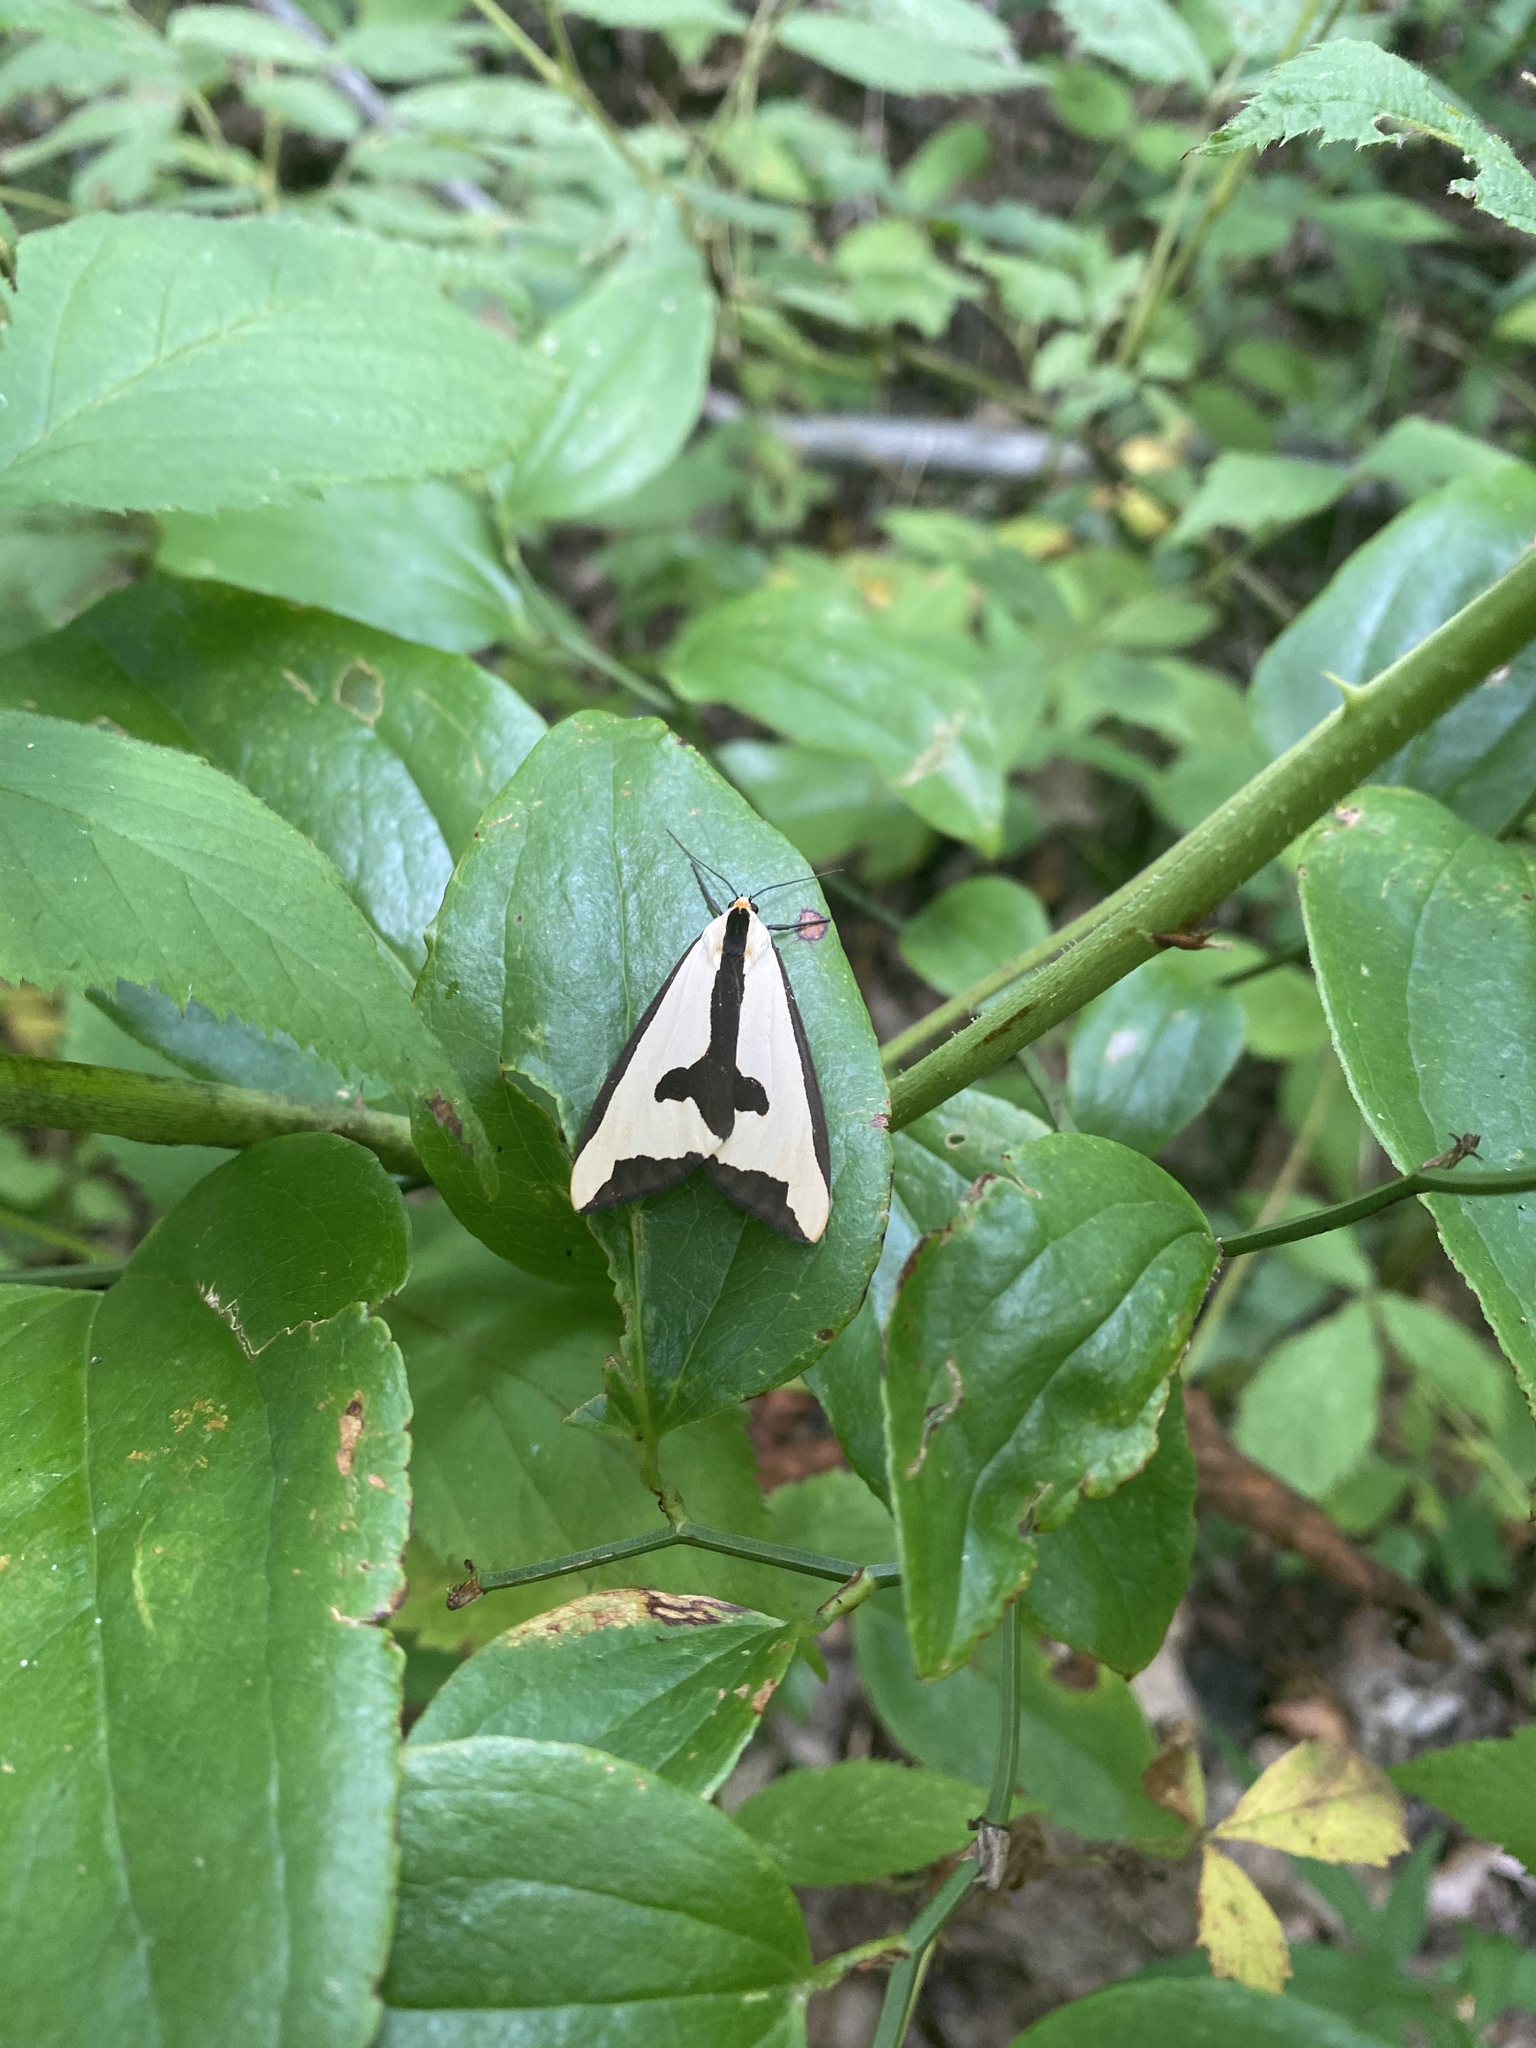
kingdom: Animalia
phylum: Arthropoda
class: Insecta
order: Lepidoptera
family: Erebidae
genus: Haploa
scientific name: Haploa clymene
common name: Clymene moth
